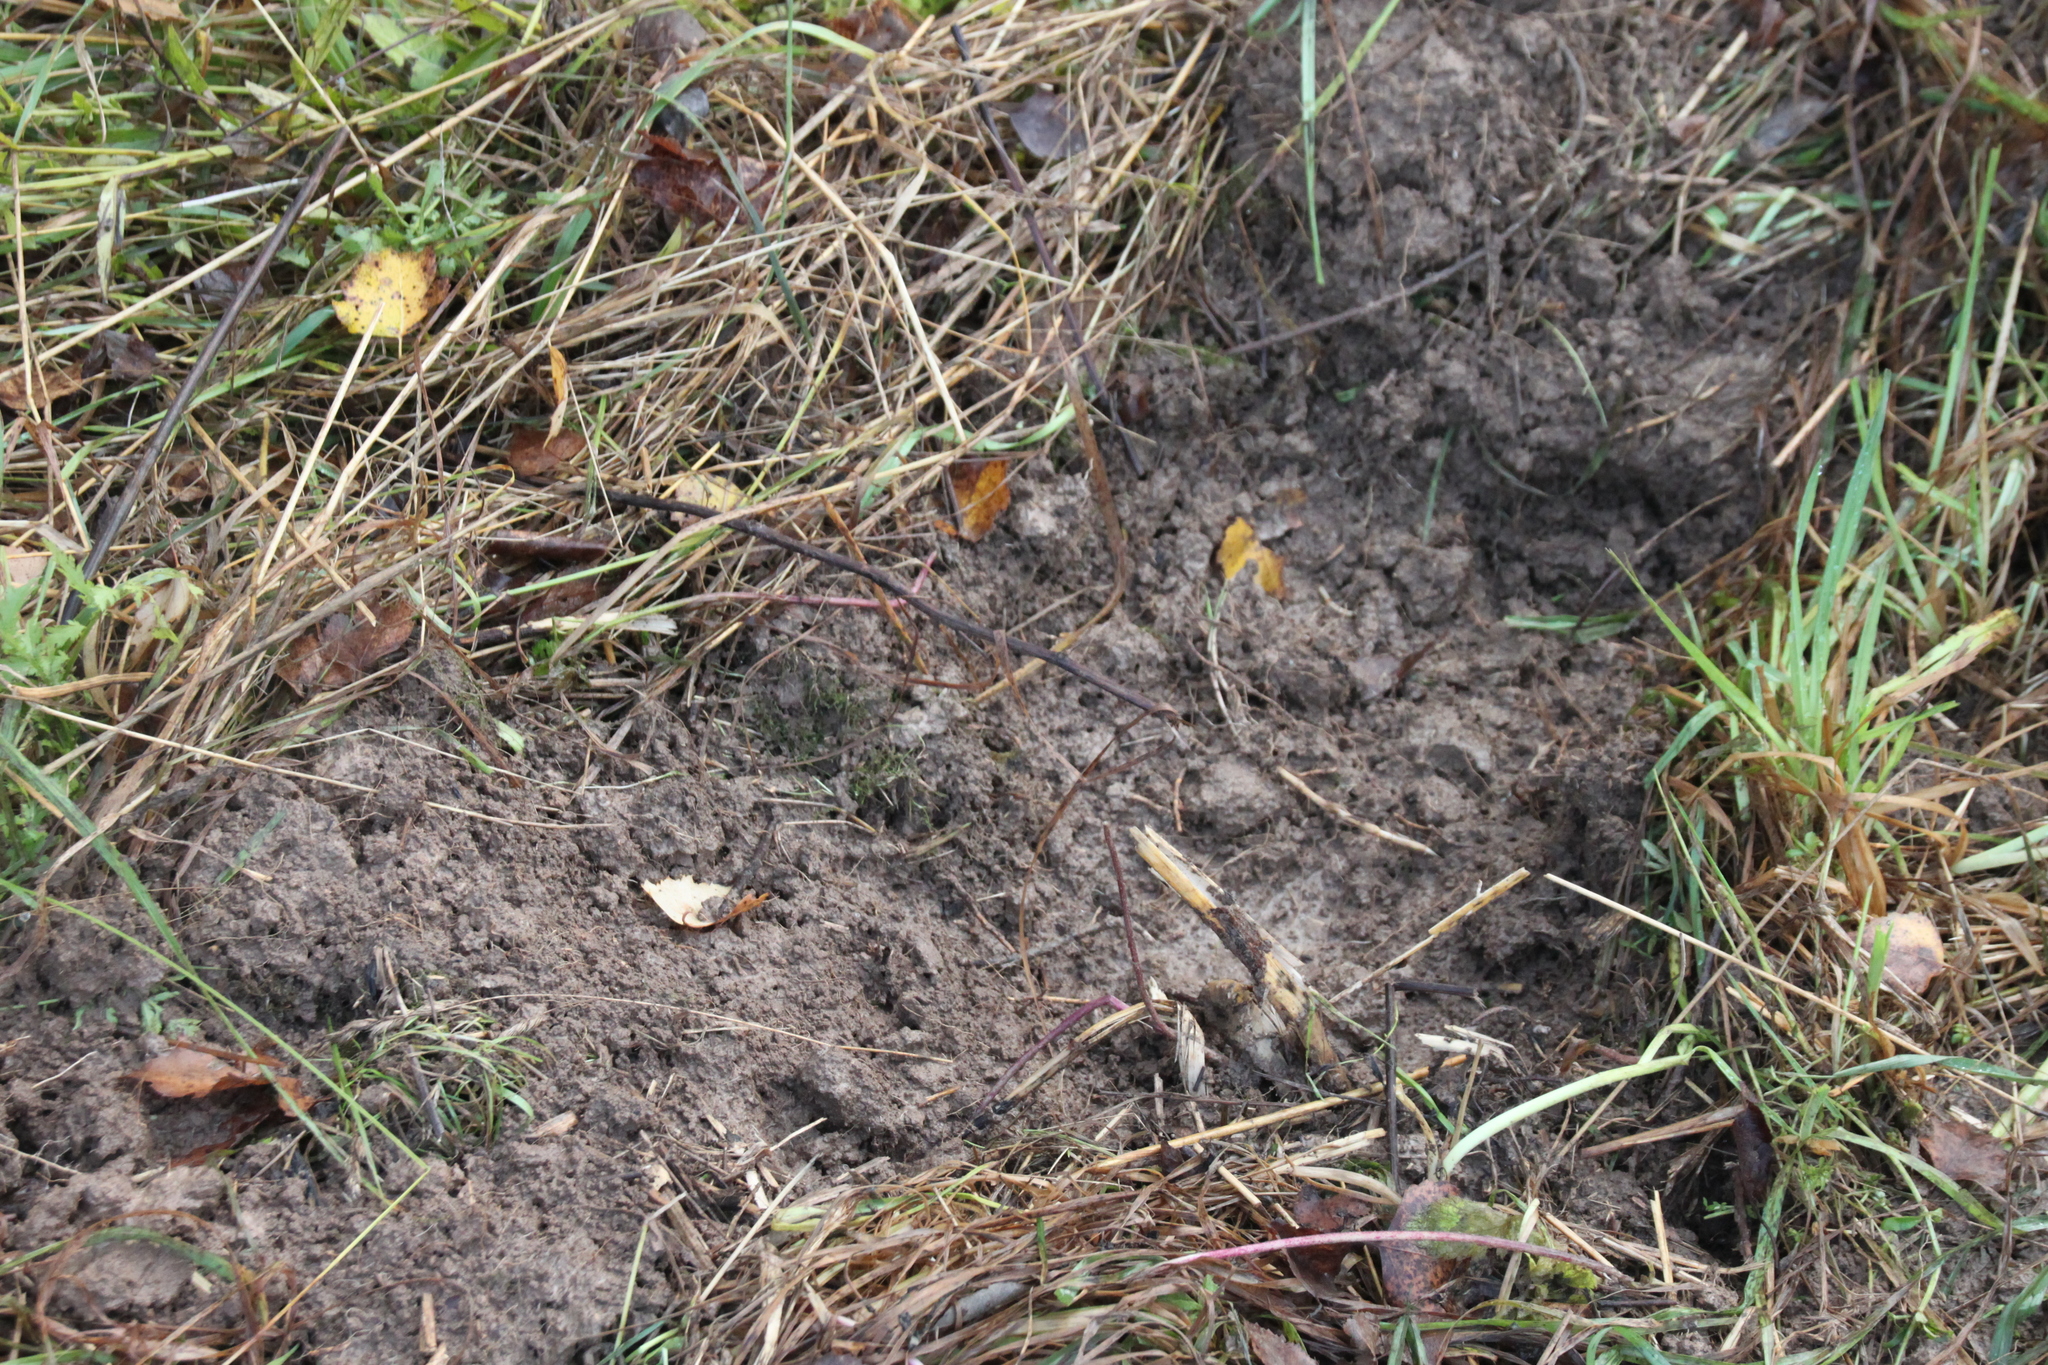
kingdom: Animalia
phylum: Chordata
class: Mammalia
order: Artiodactyla
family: Suidae
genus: Sus
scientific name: Sus scrofa
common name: Wild boar
